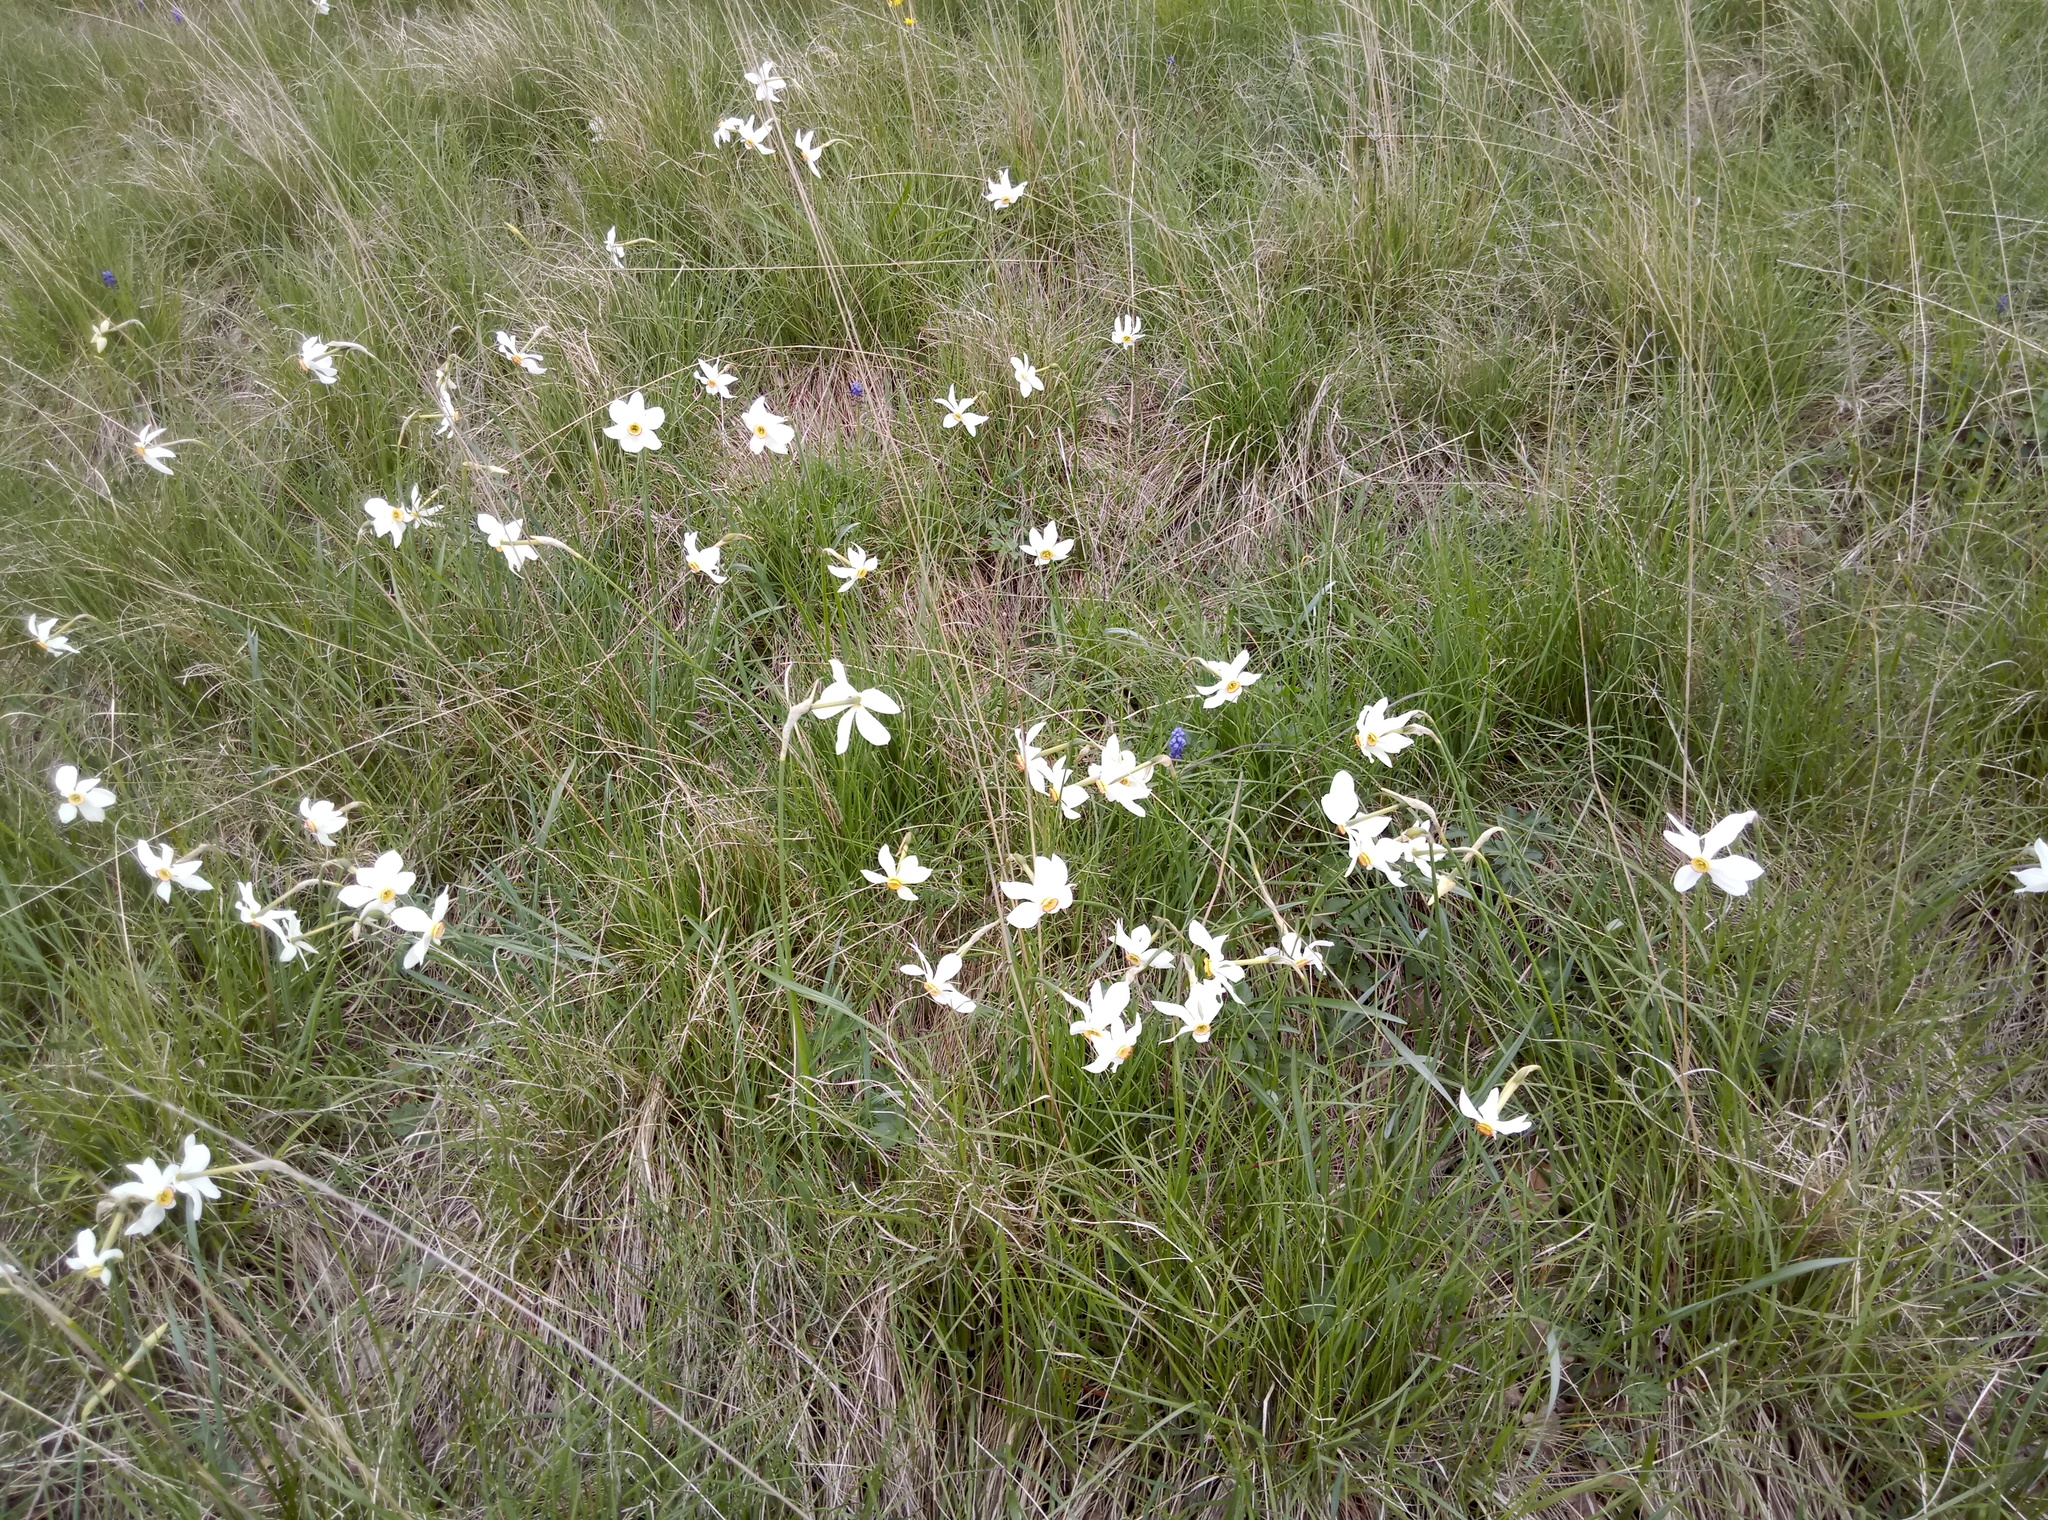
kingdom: Plantae
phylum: Tracheophyta
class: Liliopsida
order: Asparagales
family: Amaryllidaceae
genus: Narcissus
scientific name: Narcissus poeticus
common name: Pheasant's-eye daffodil
